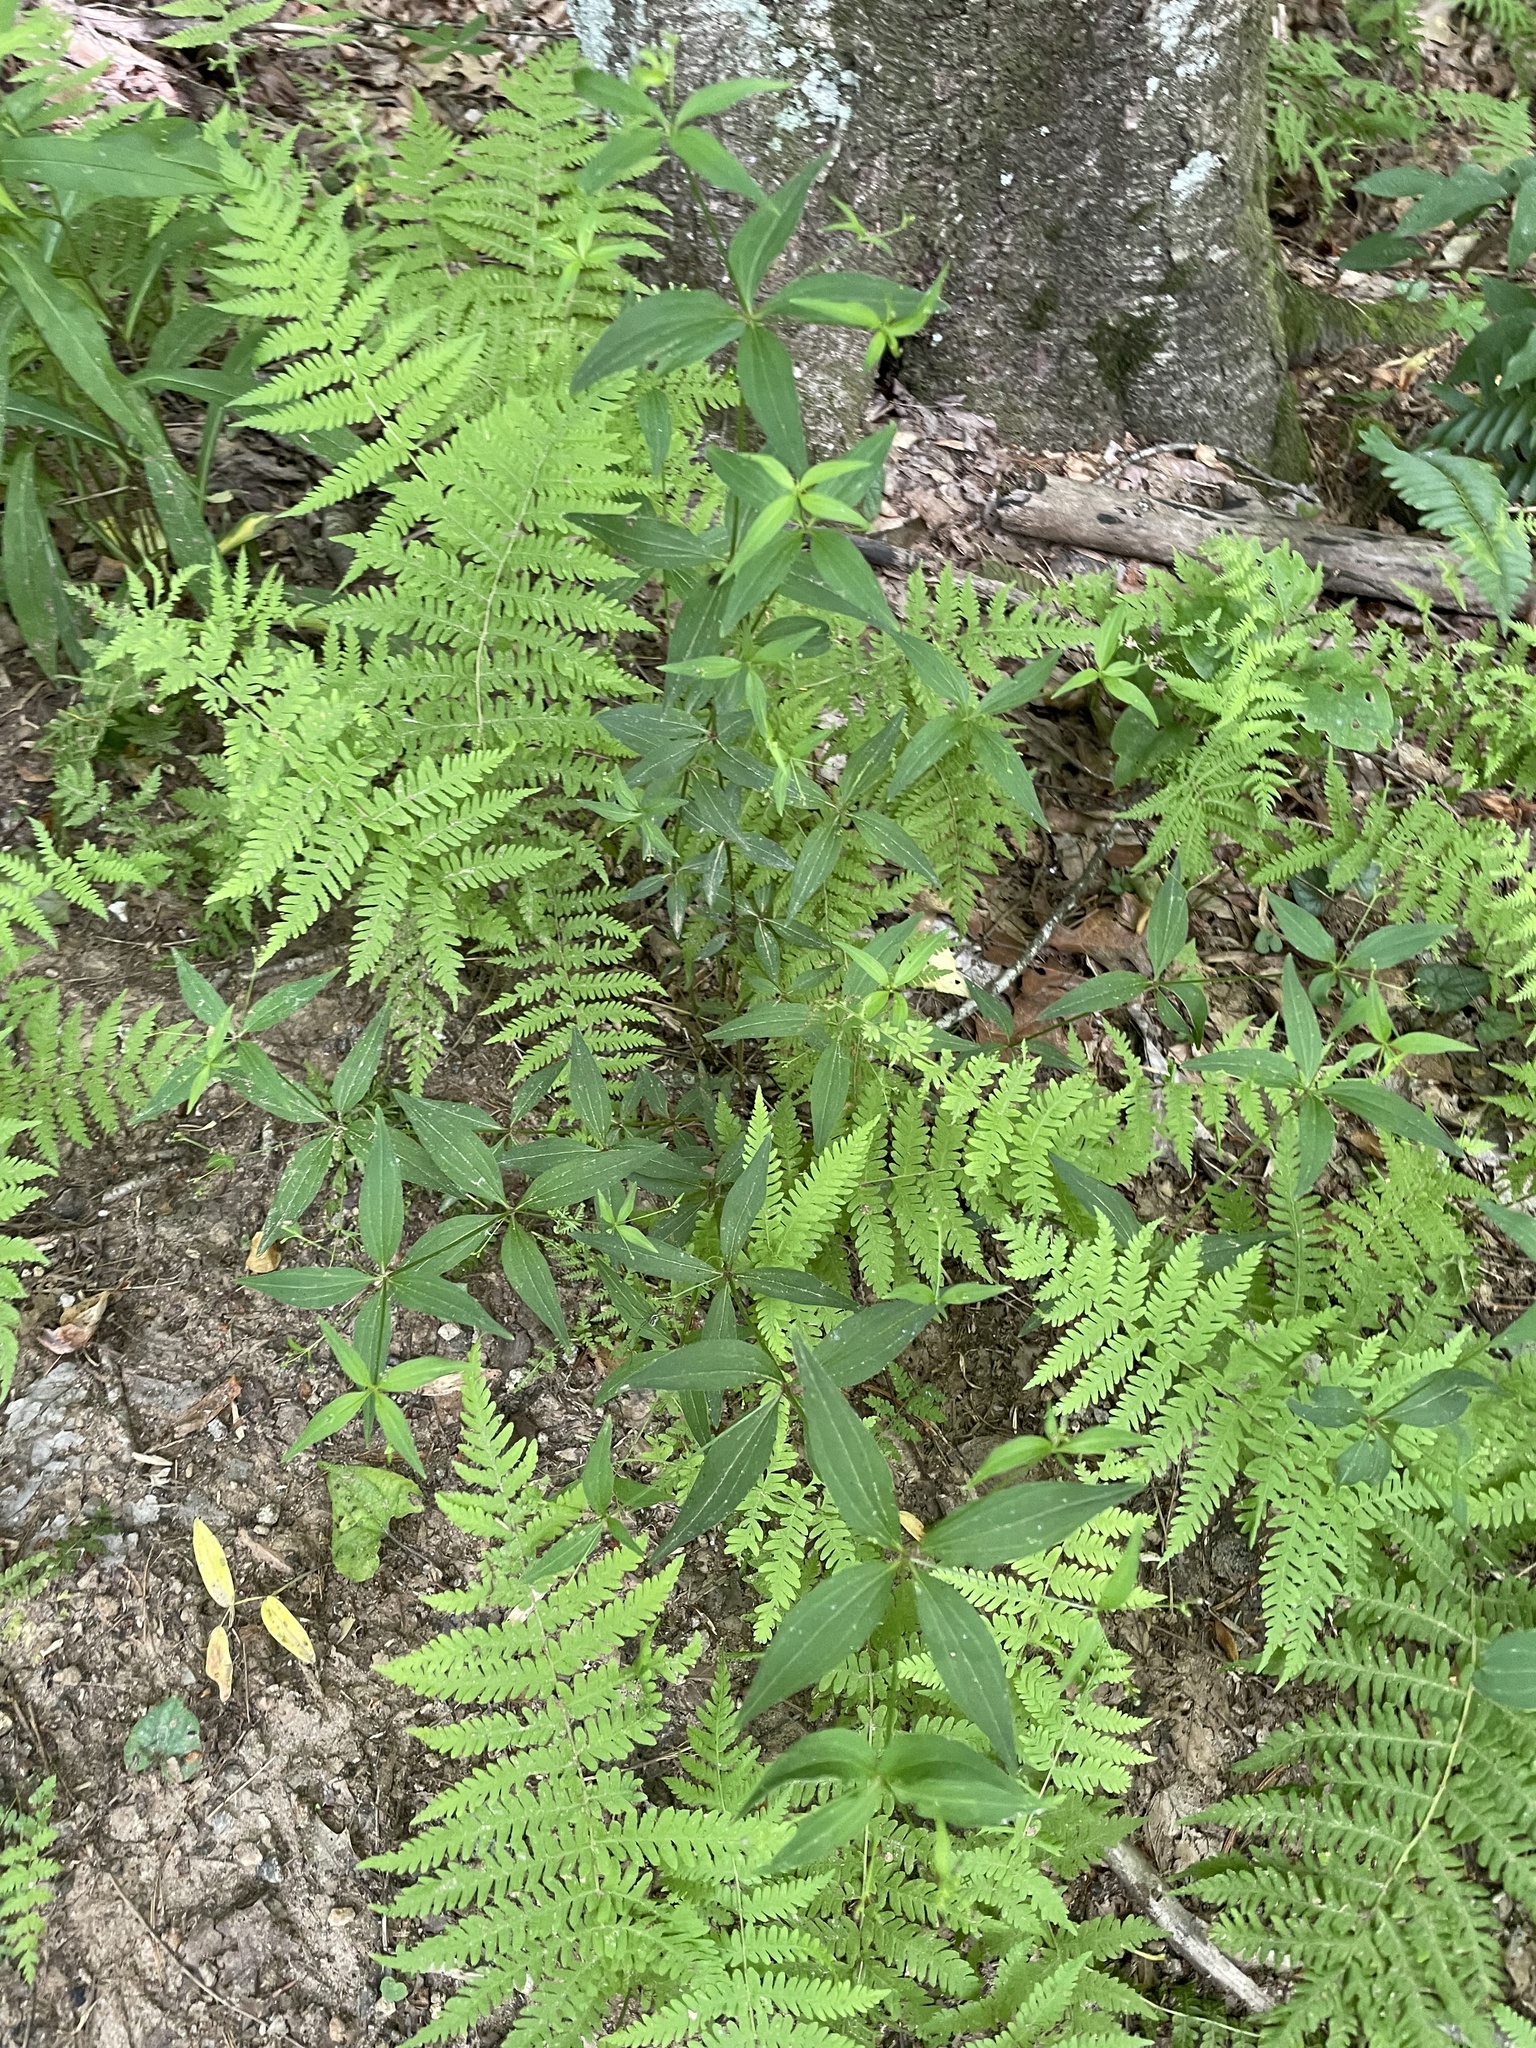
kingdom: Plantae
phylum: Tracheophyta
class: Magnoliopsida
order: Gentianales
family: Rubiaceae
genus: Galium
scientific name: Galium latifolium
